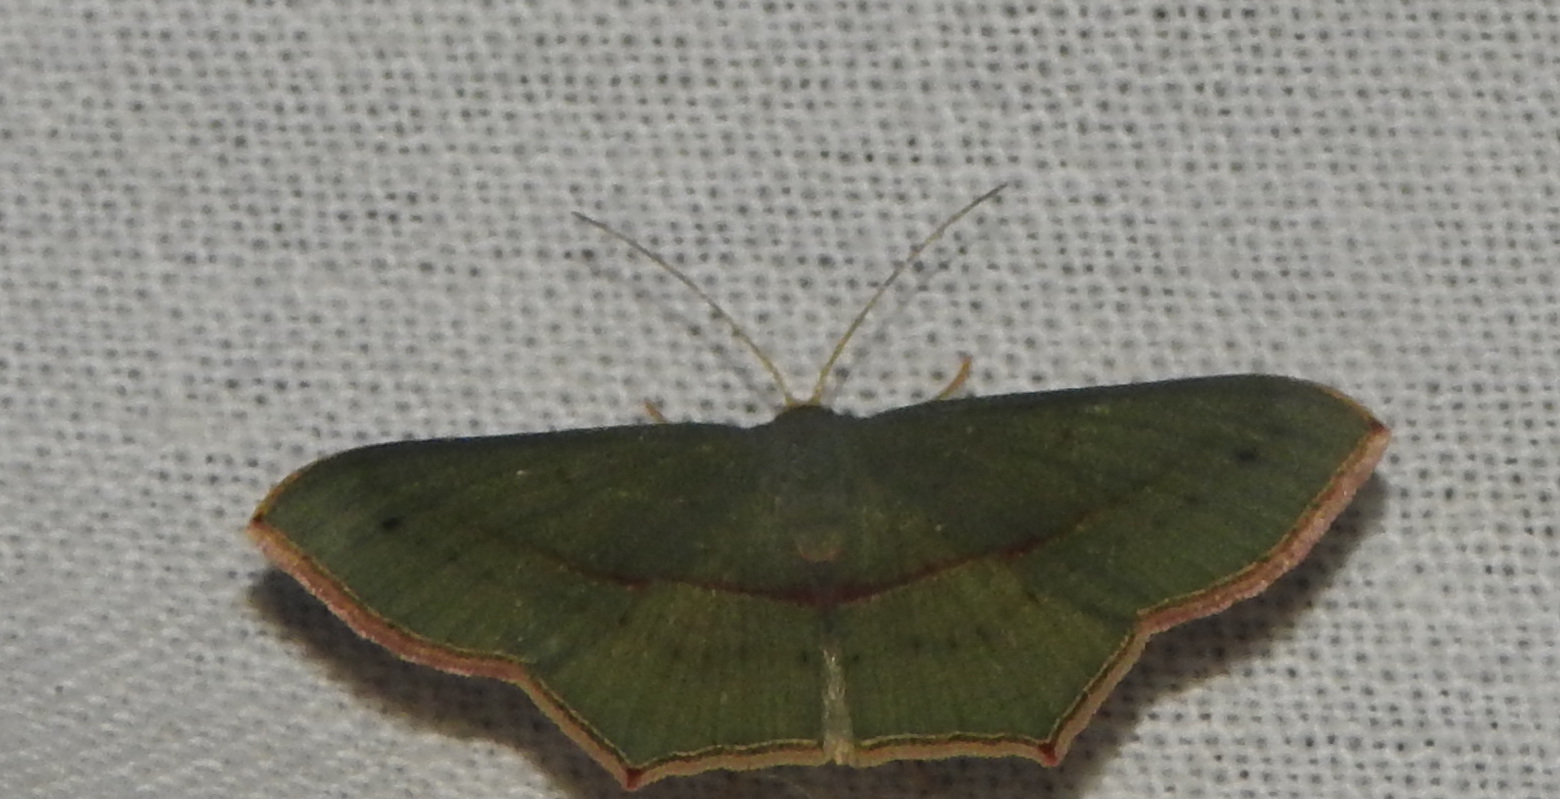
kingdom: Animalia
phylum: Arthropoda
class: Insecta
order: Lepidoptera
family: Geometridae
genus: Traminda
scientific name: Traminda mundissima
